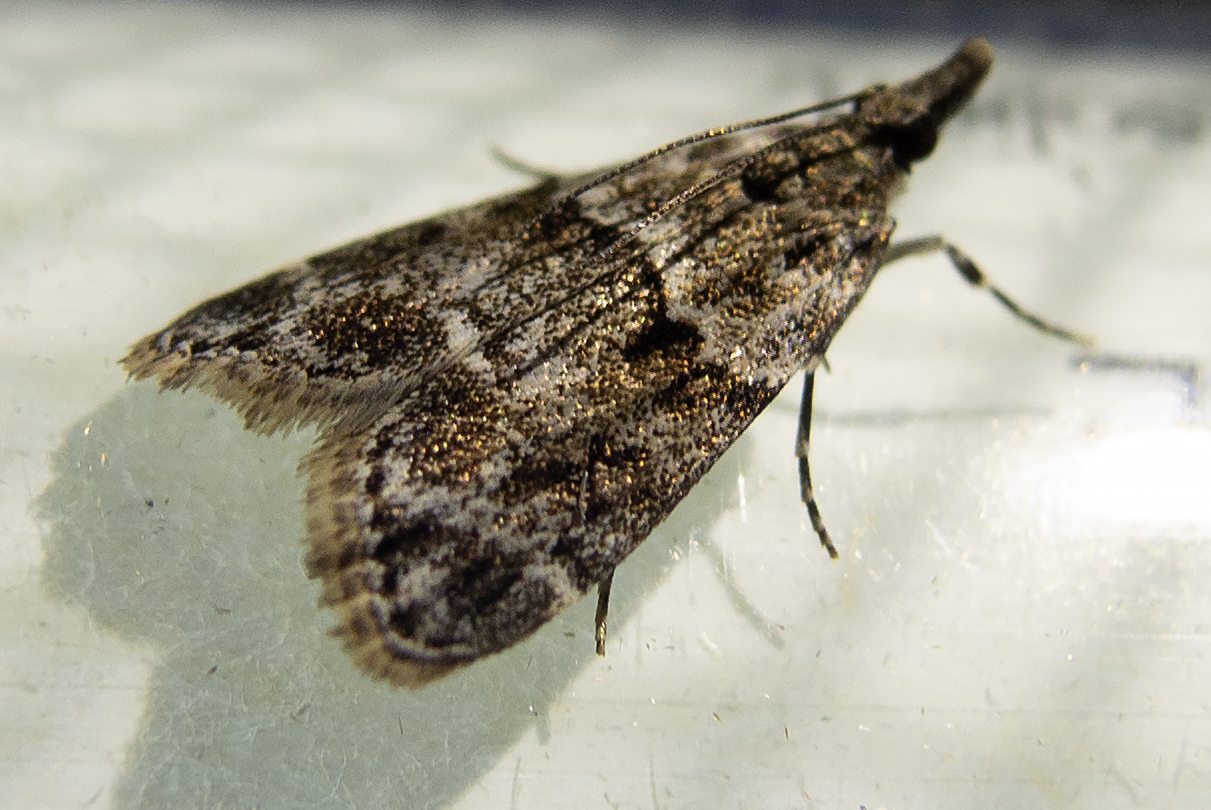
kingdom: Animalia
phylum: Arthropoda
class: Insecta
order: Lepidoptera
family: Crambidae
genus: Eudonia
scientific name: Eudonia mercurella
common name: Small grey
